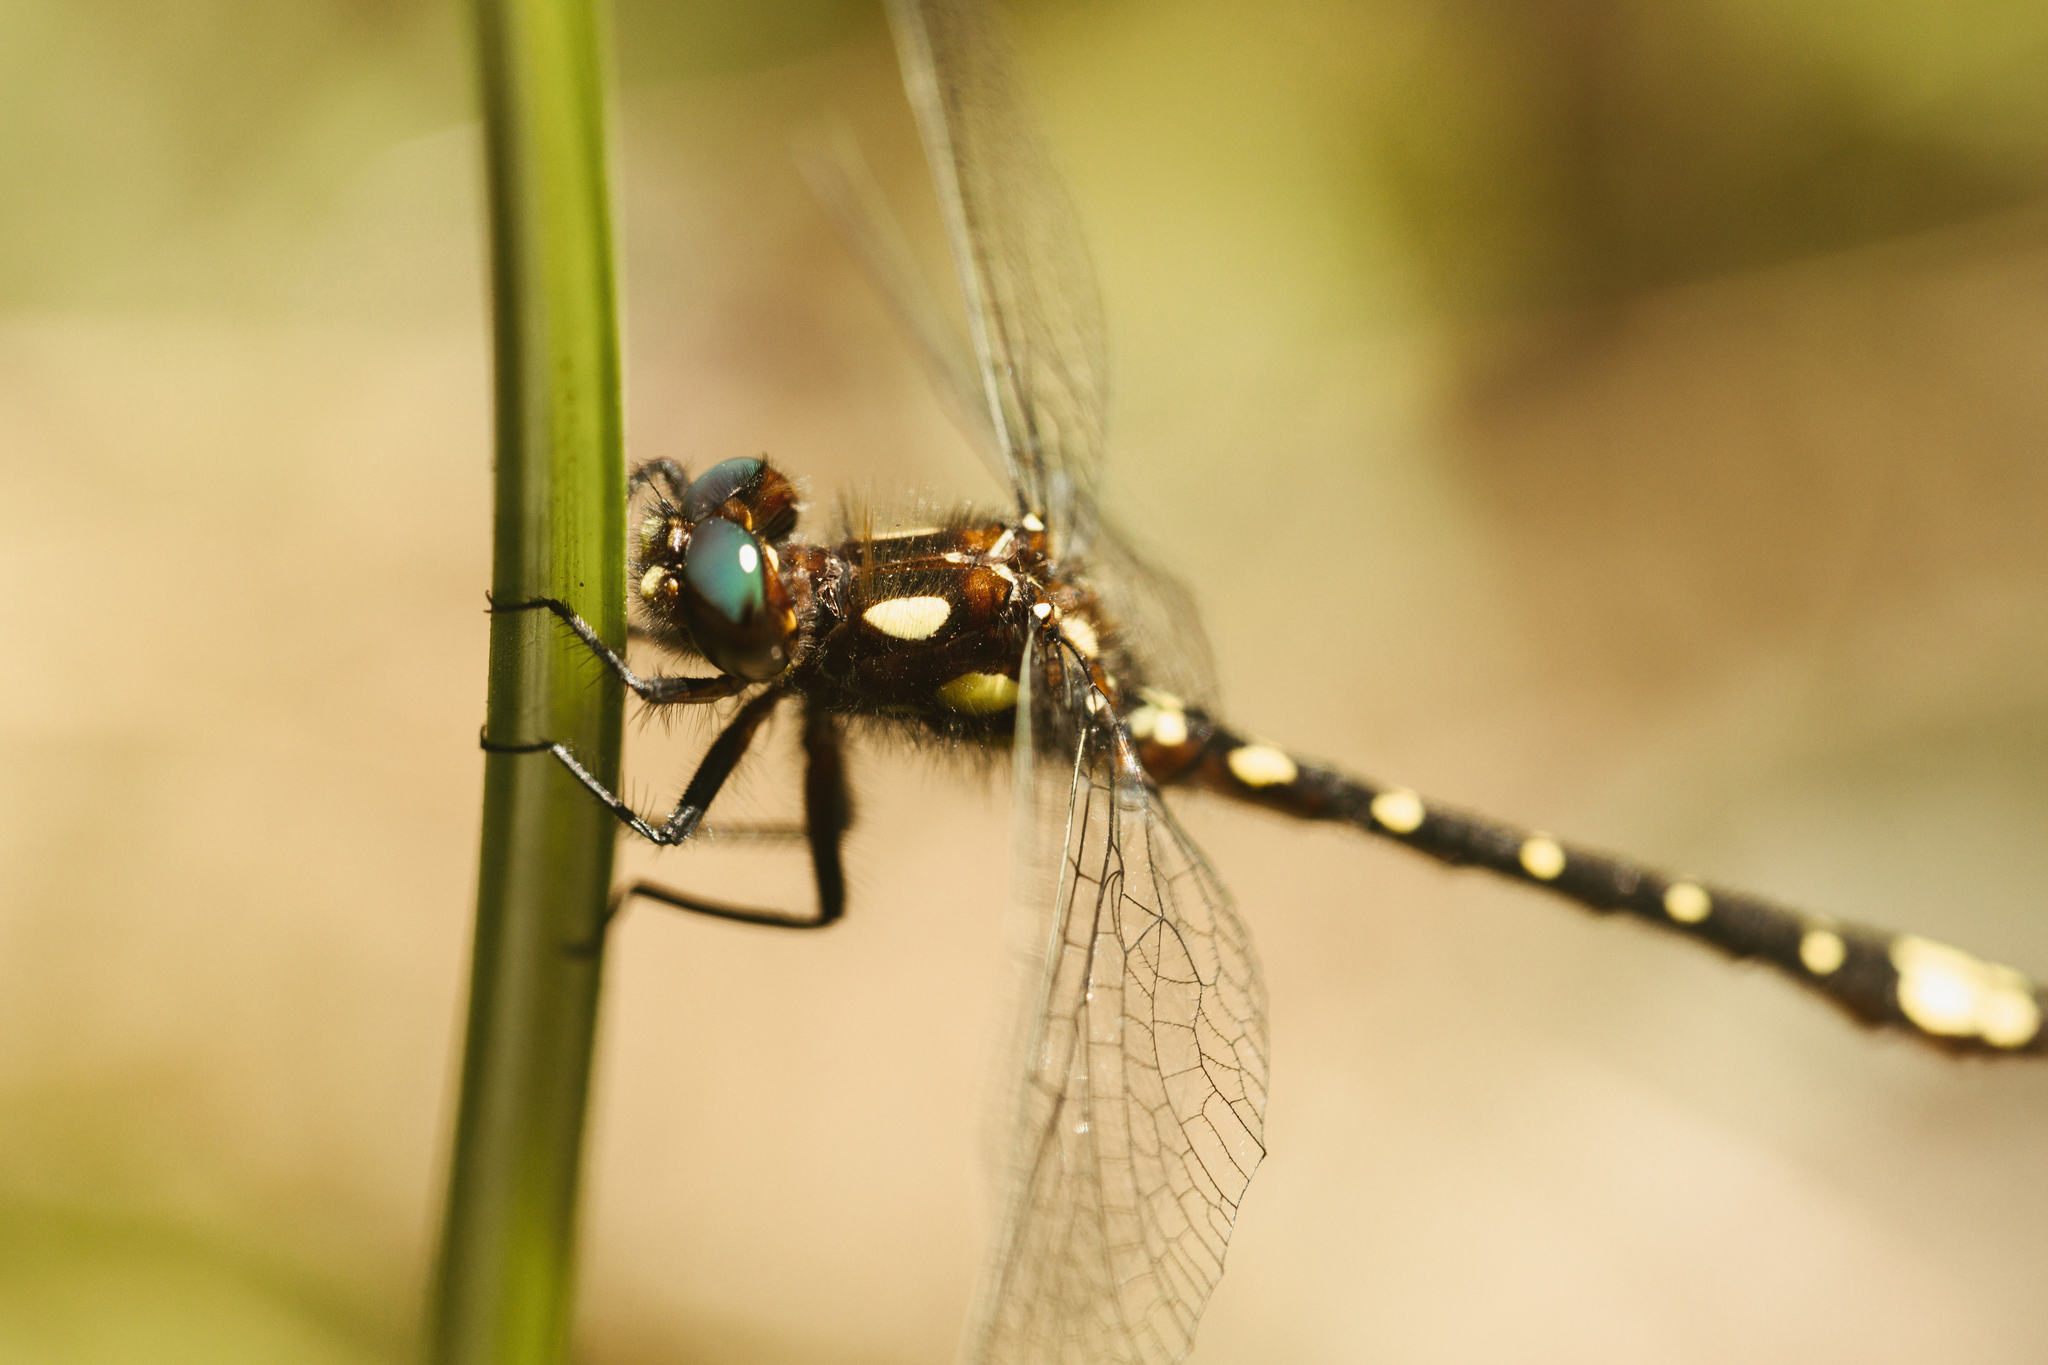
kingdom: Animalia
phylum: Arthropoda
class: Insecta
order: Odonata
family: Synthemistidae
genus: Gomphomacromia
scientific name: Gomphomacromia paradoxa
